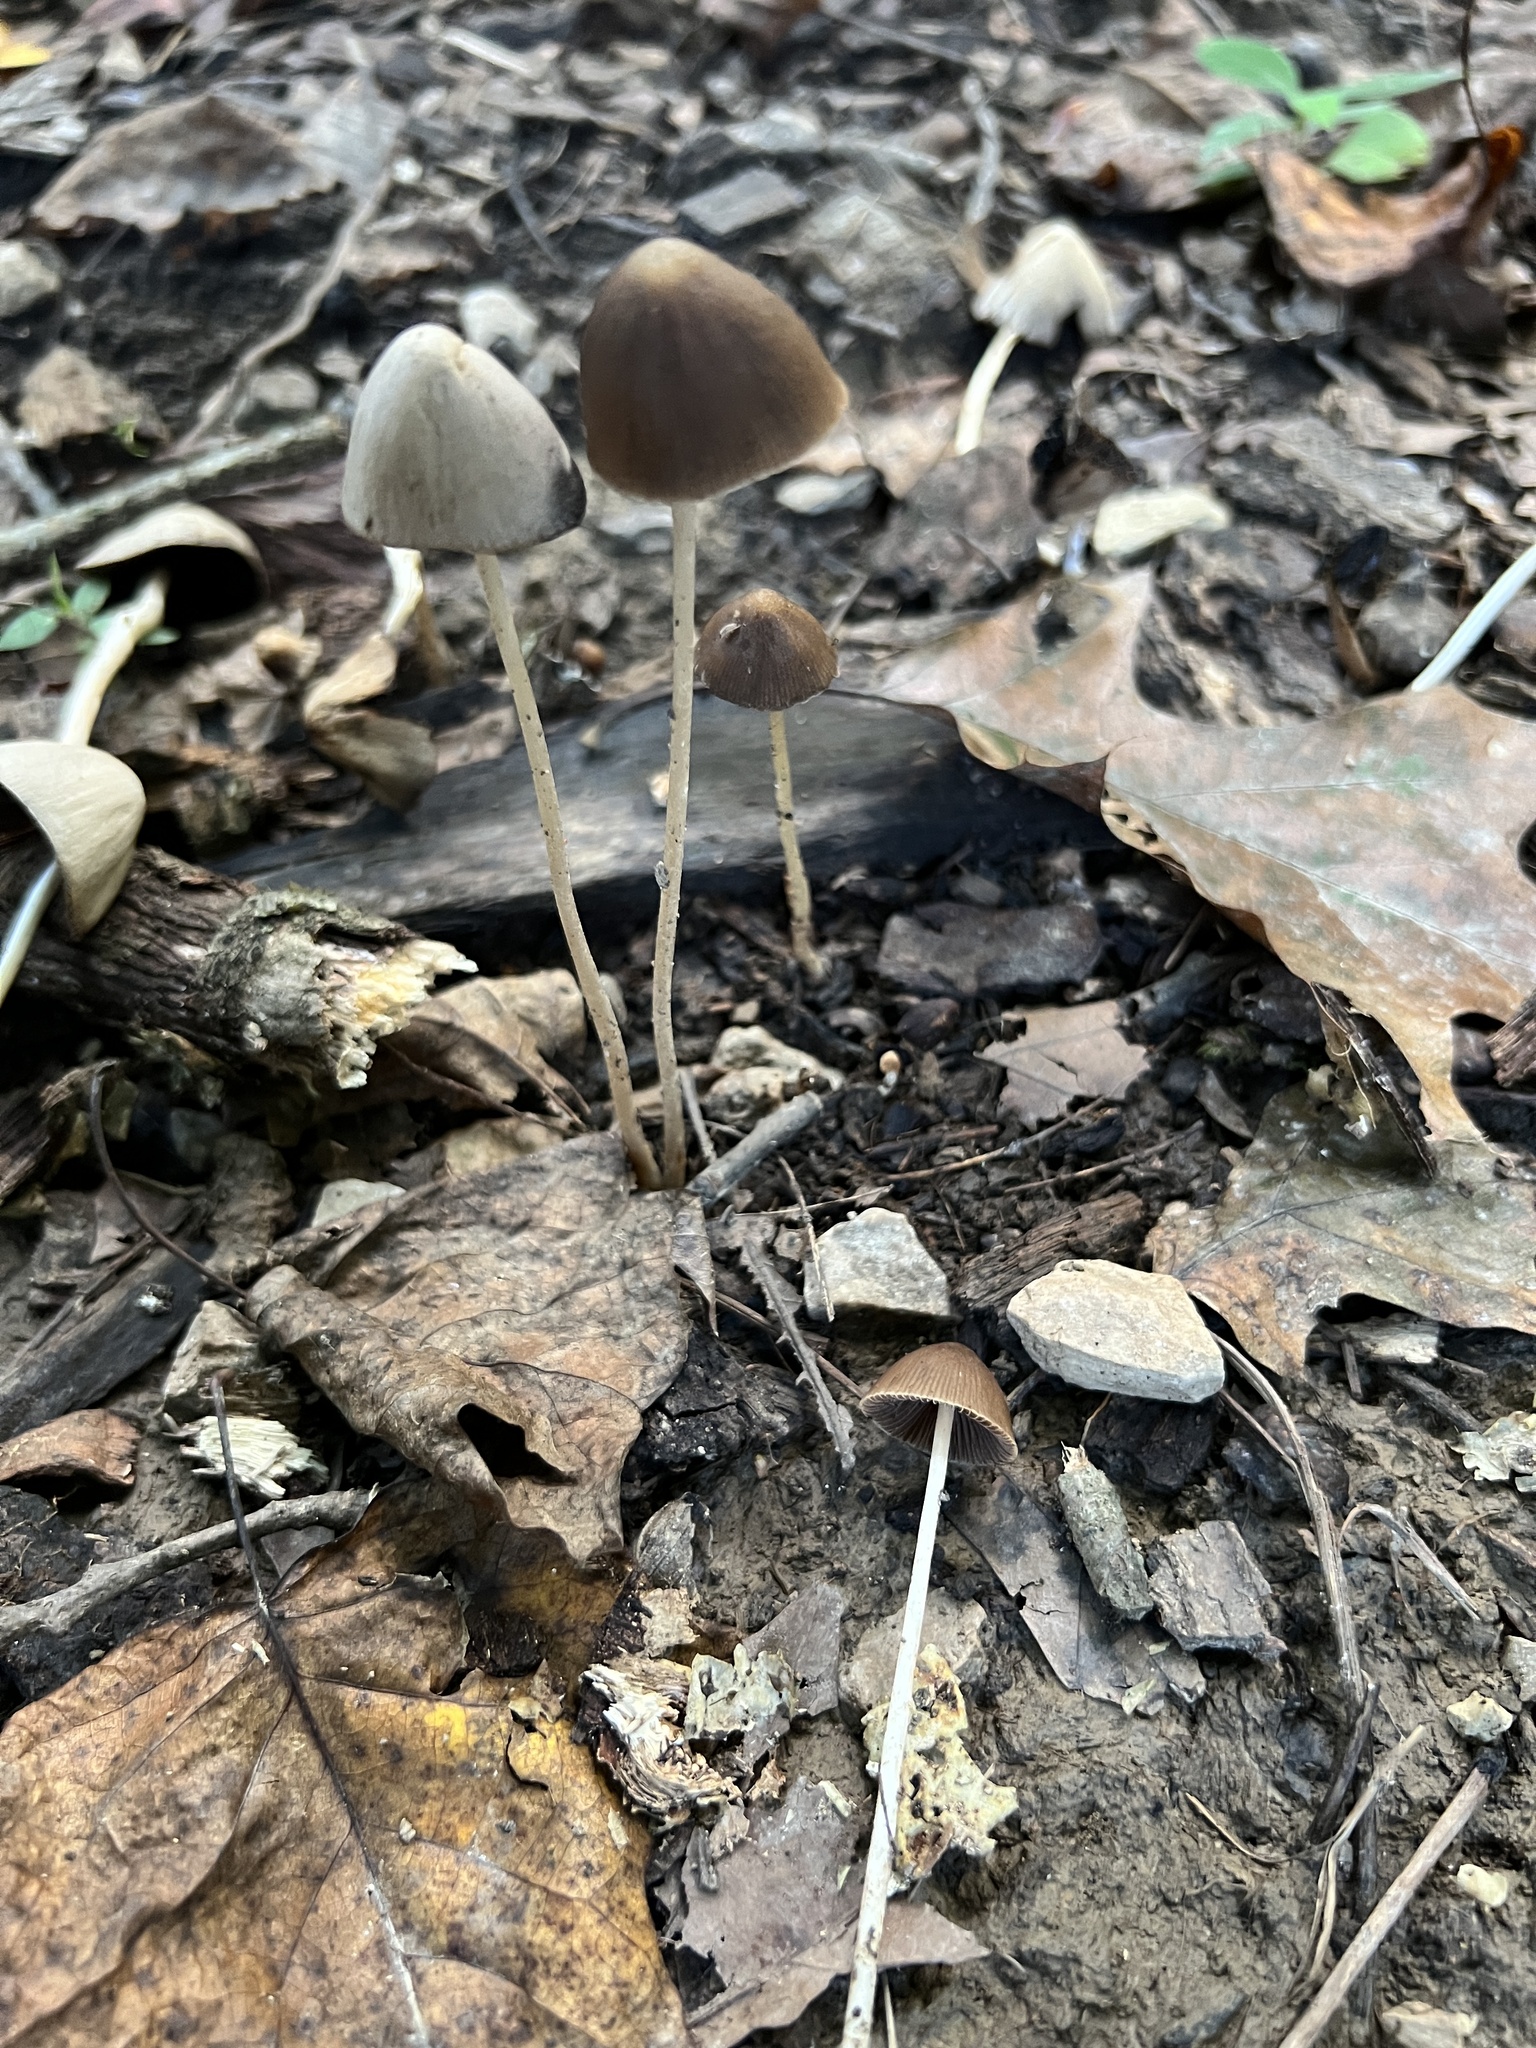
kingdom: Fungi
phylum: Basidiomycota
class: Agaricomycetes
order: Agaricales
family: Psathyrellaceae
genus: Parasola
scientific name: Parasola conopilea
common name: Conical brittlestem
